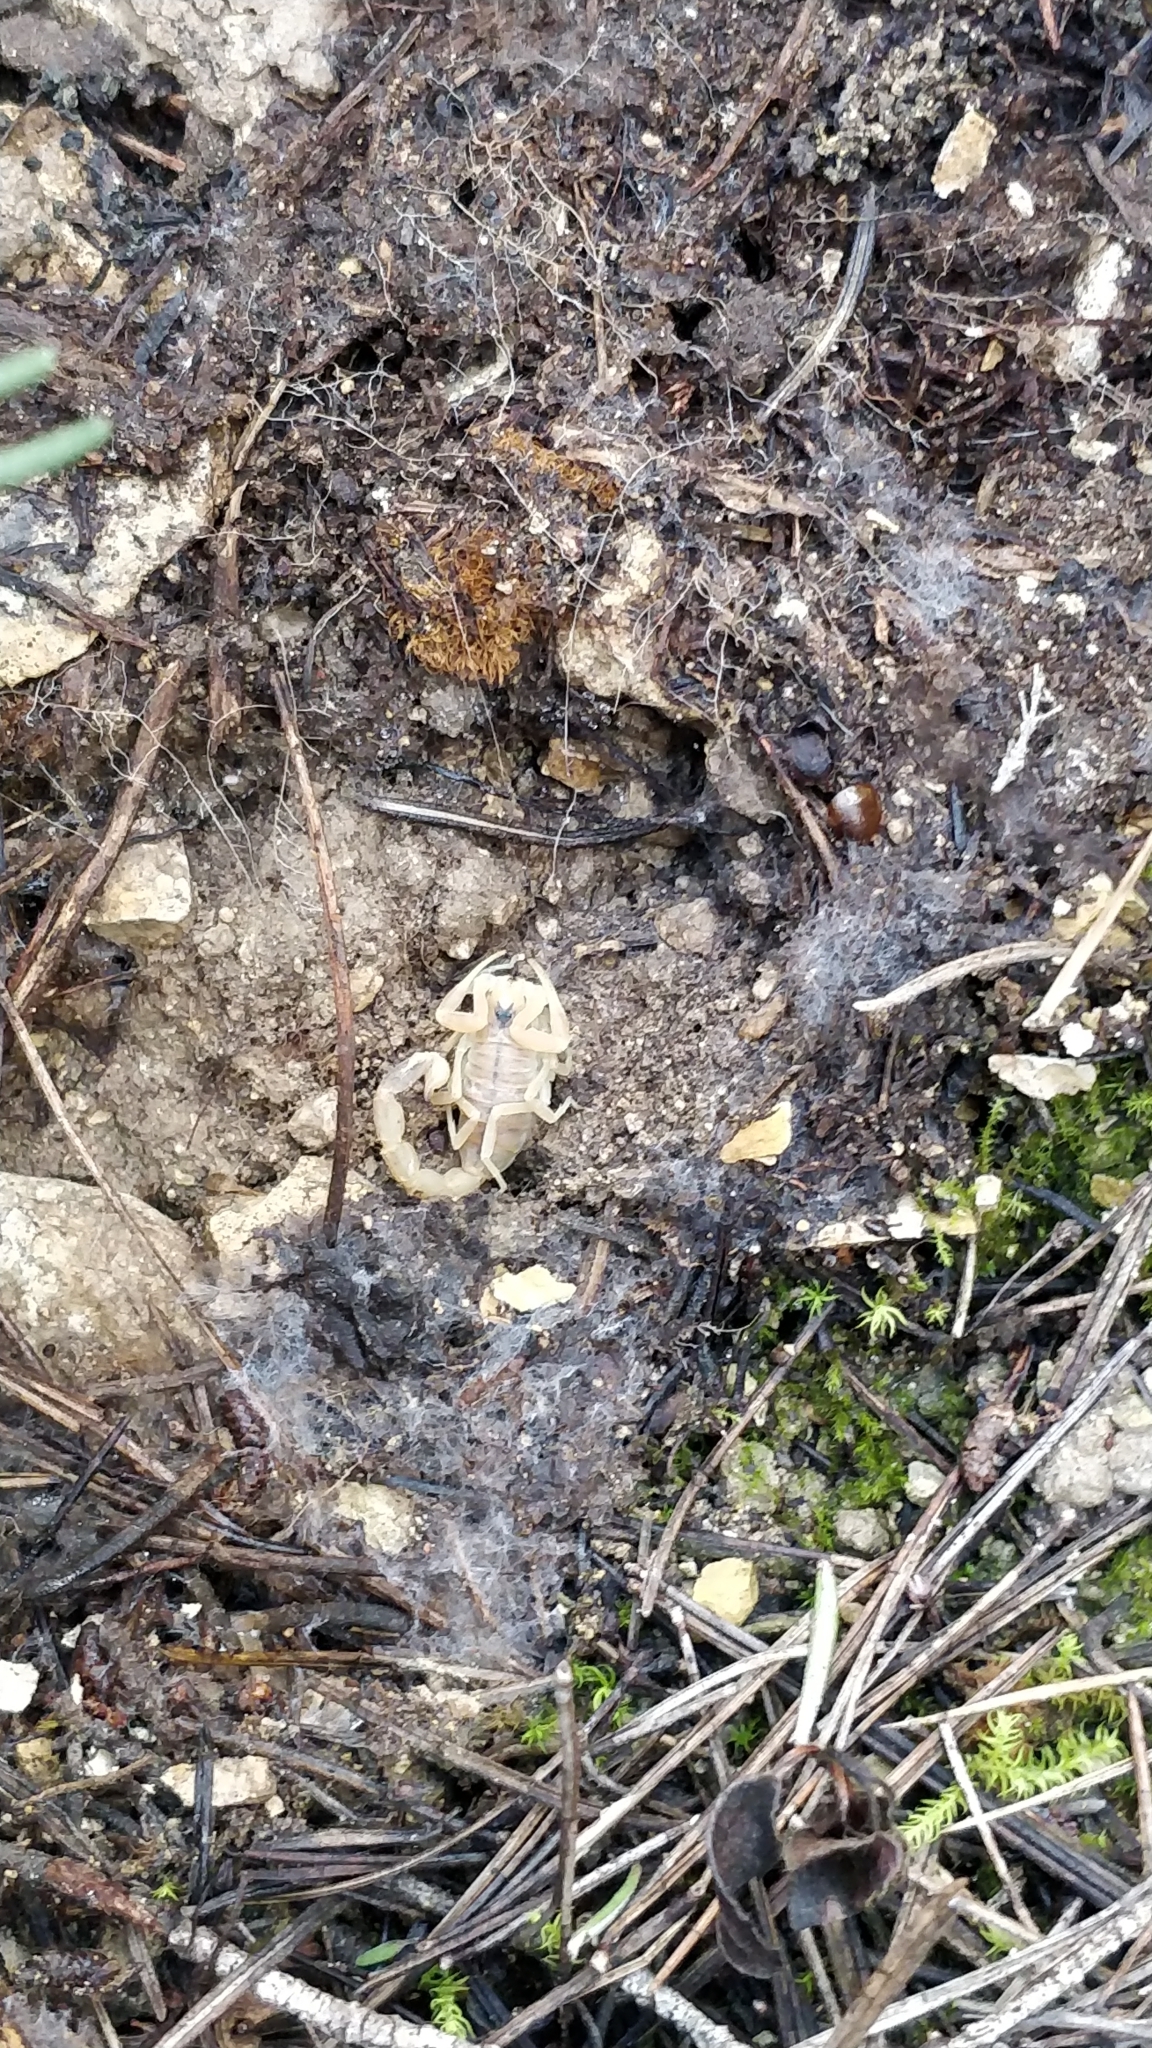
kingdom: Animalia
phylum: Arthropoda
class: Arachnida
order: Scorpiones
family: Buthidae
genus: Buthus
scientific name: Buthus occitanus
